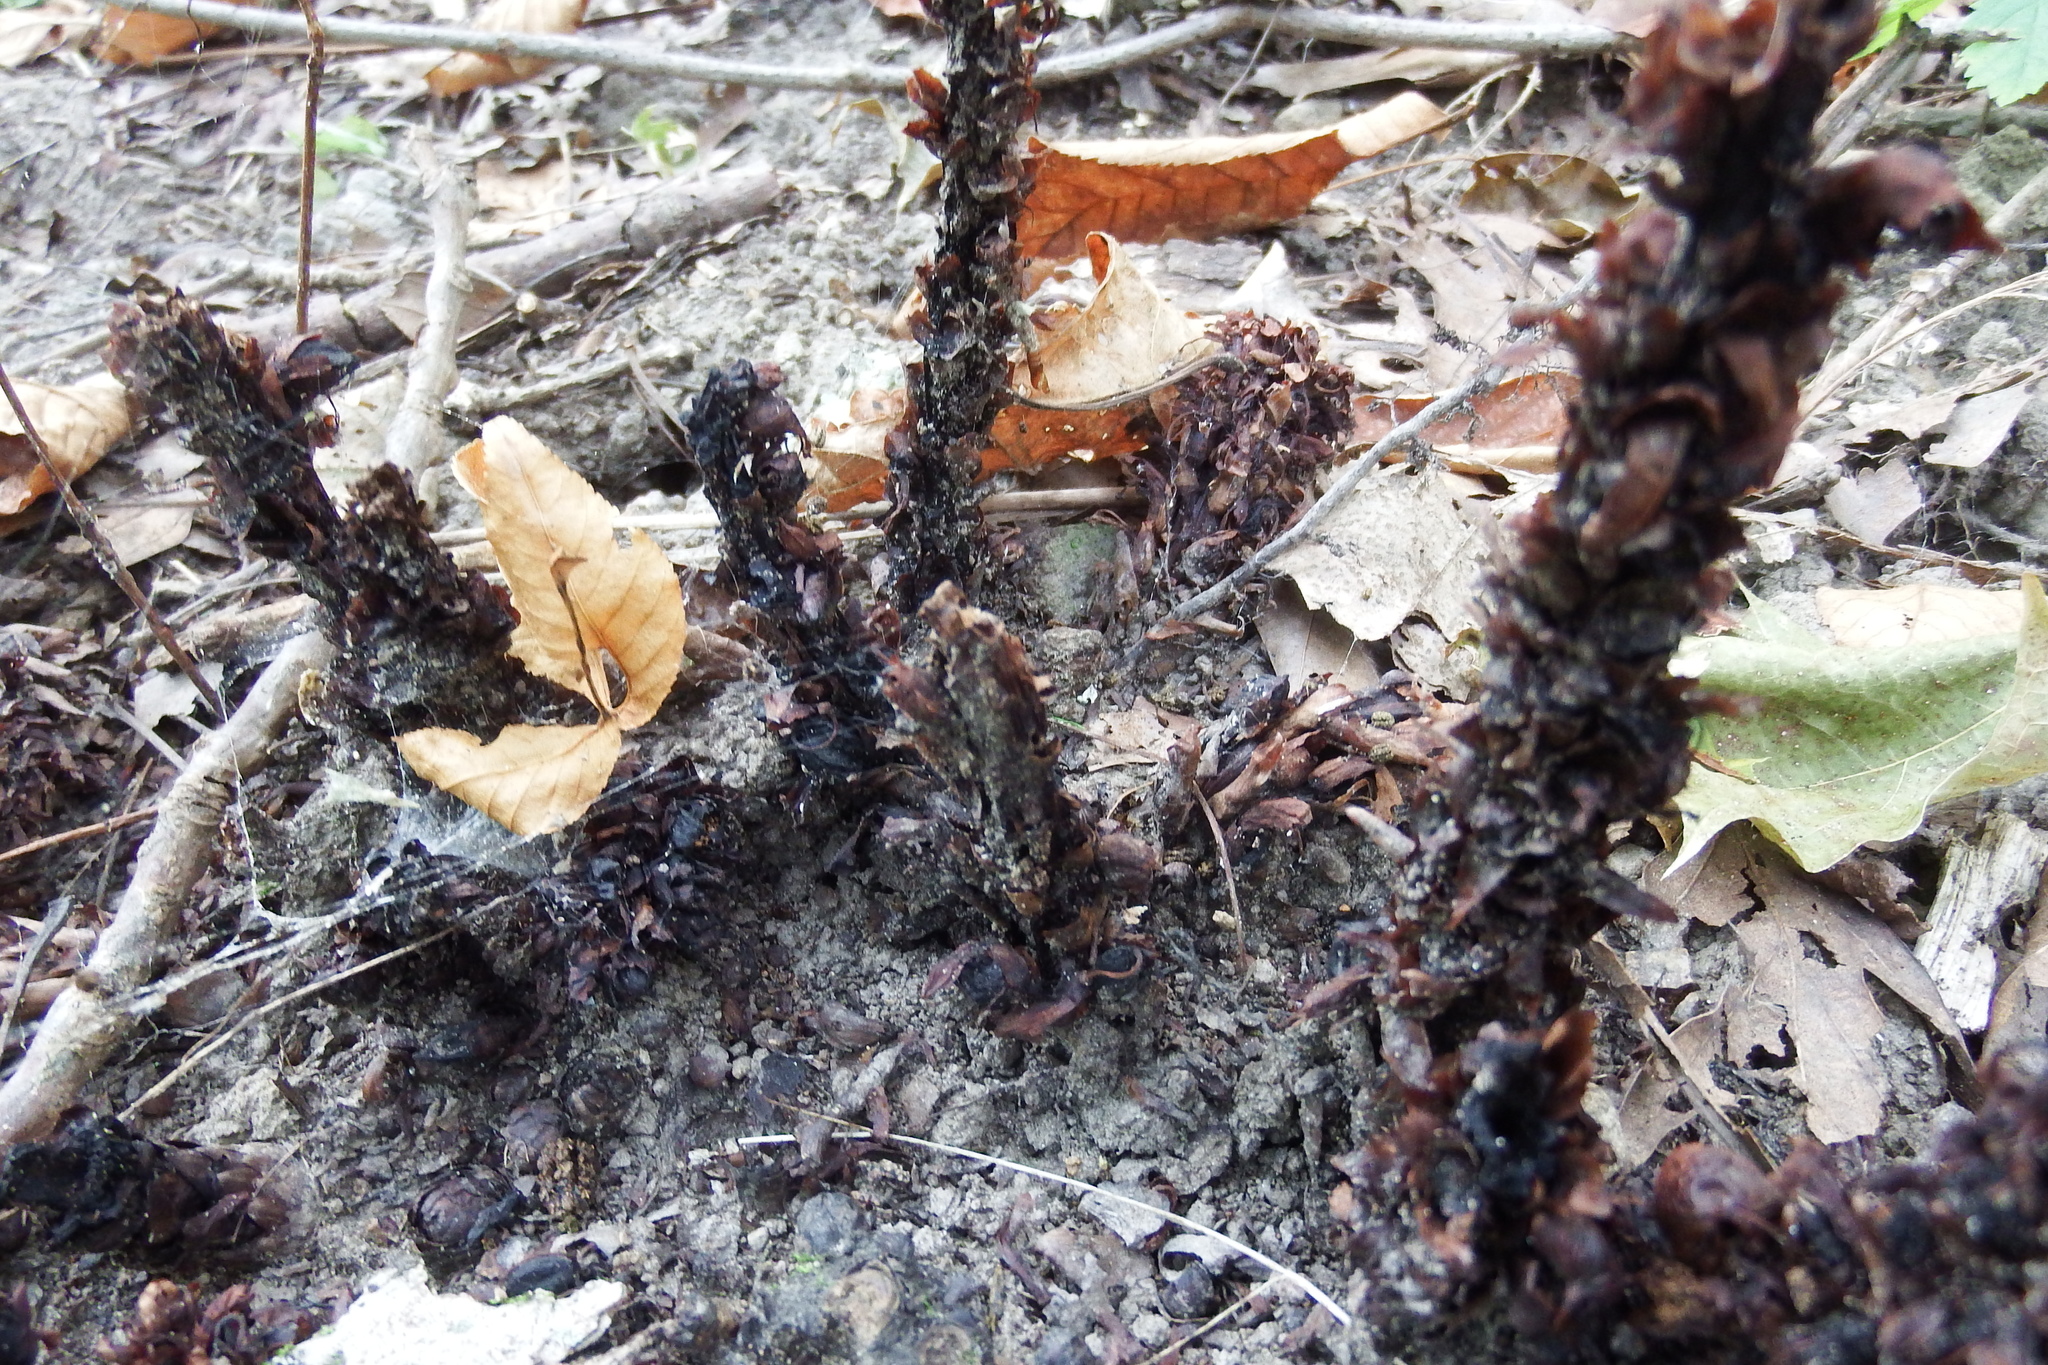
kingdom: Plantae
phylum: Tracheophyta
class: Magnoliopsida
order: Lamiales
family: Orobanchaceae
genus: Conopholis
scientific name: Conopholis americana
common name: American cancer-root
